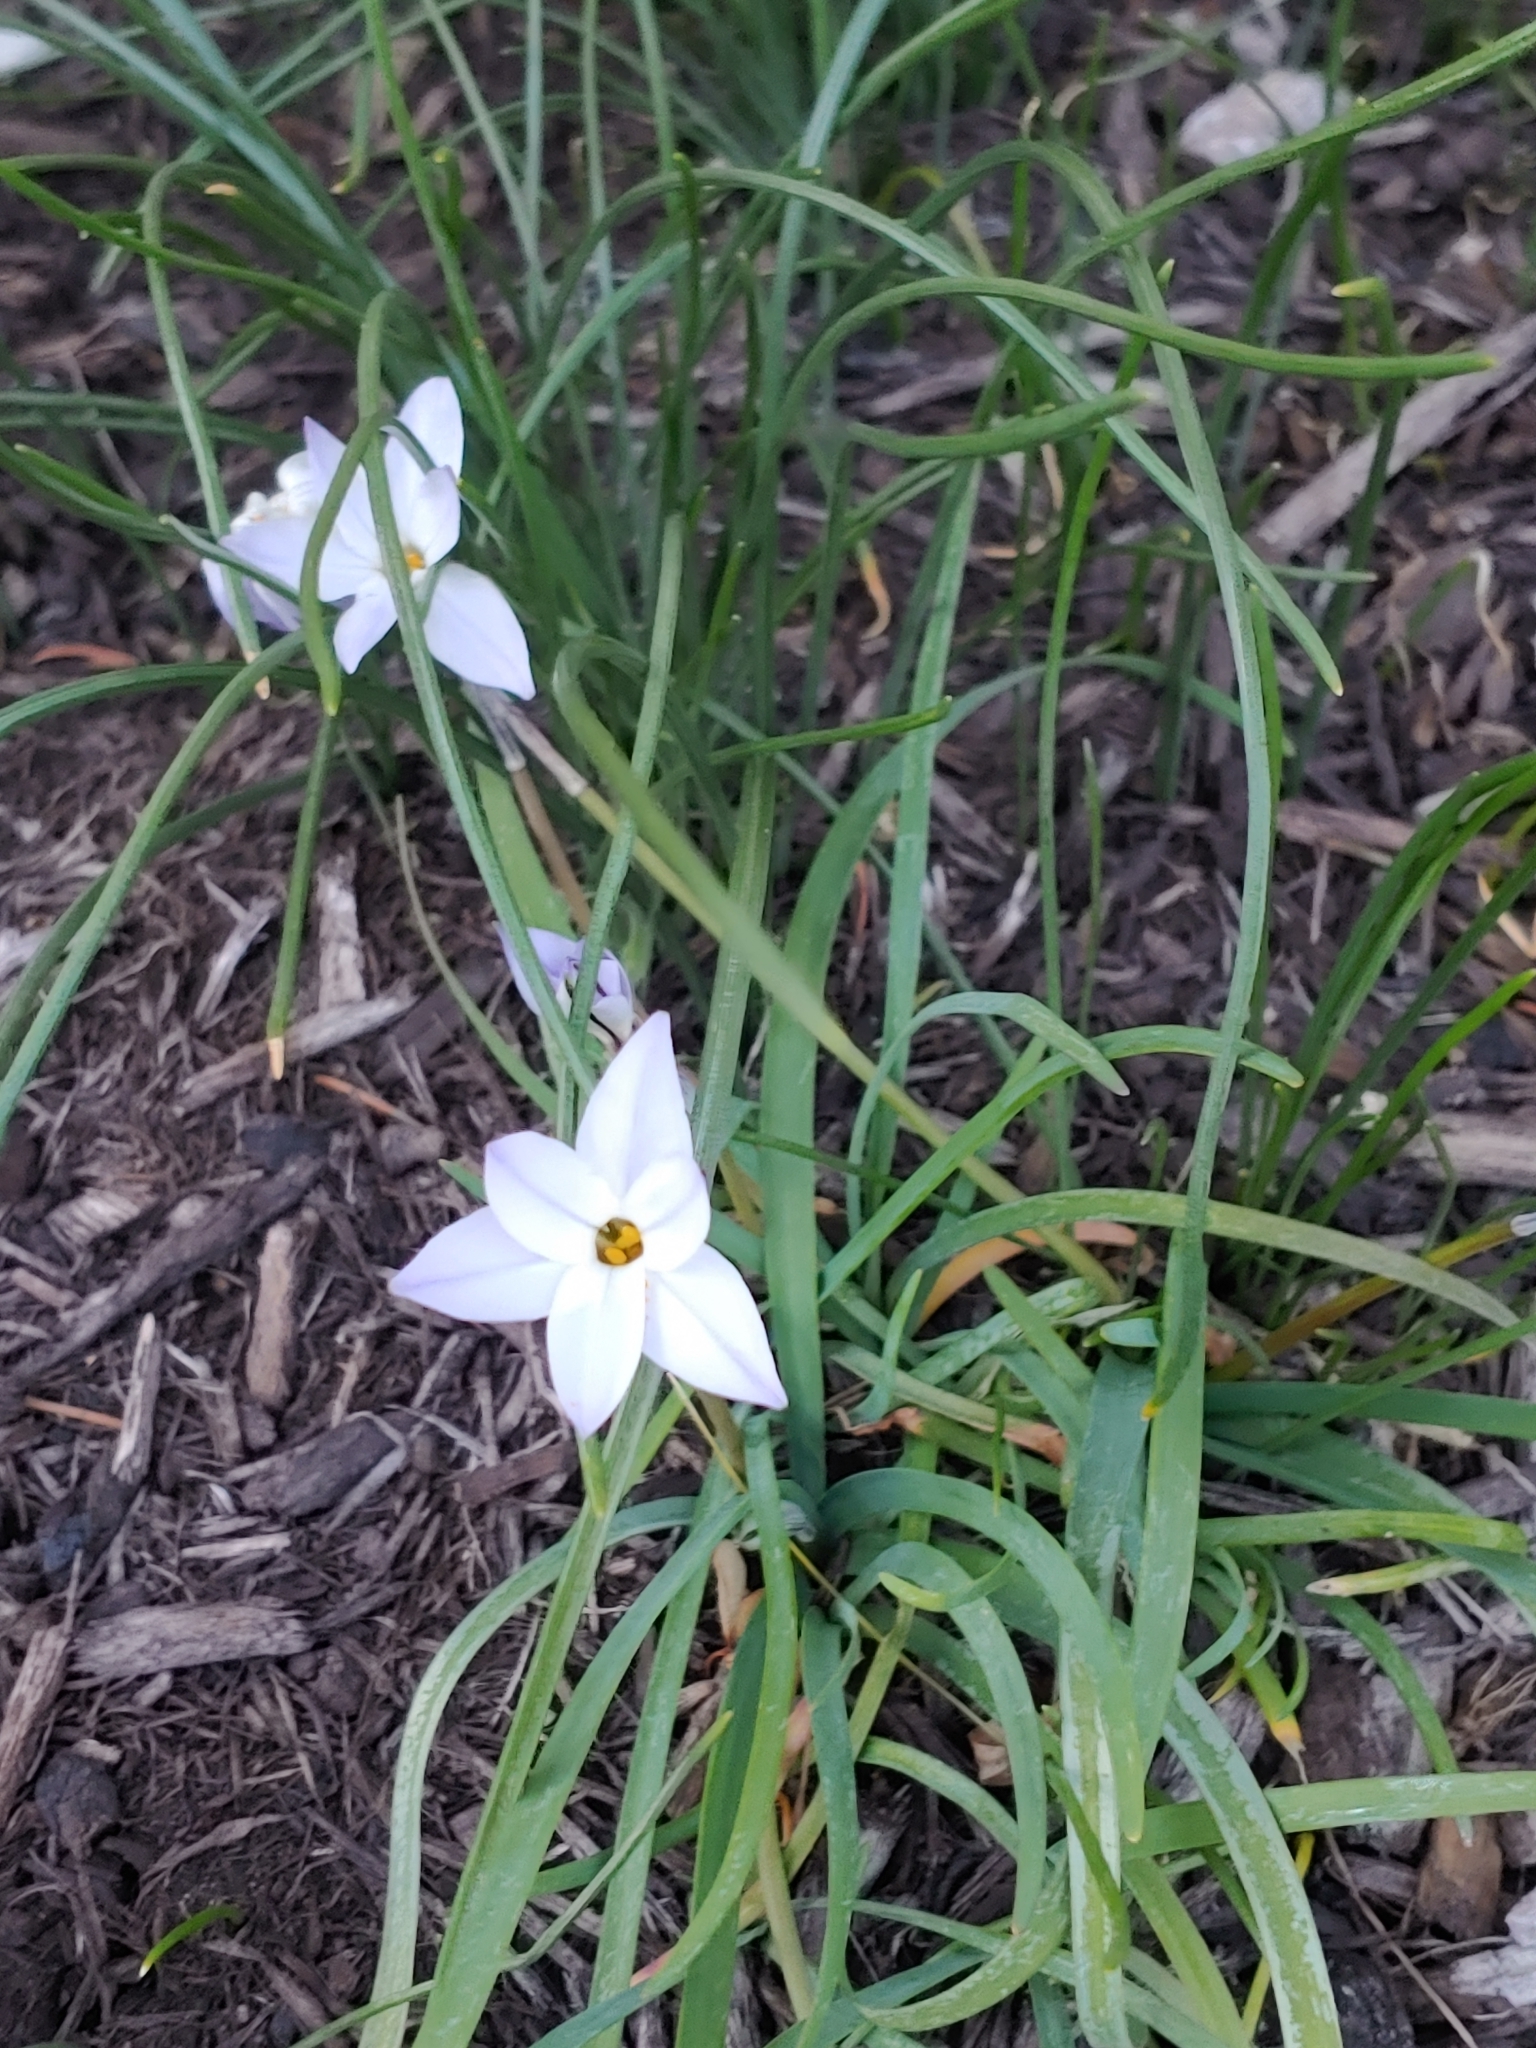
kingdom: Plantae
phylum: Tracheophyta
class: Liliopsida
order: Asparagales
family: Amaryllidaceae
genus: Ipheion
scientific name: Ipheion uniflorum
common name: Spring starflower
